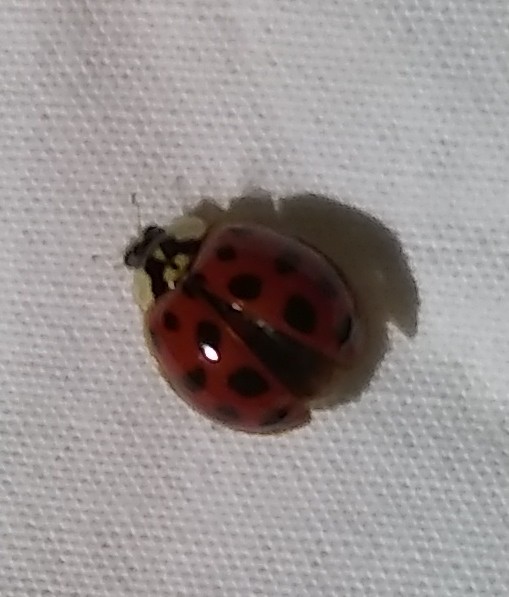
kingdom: Animalia
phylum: Arthropoda
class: Insecta
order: Coleoptera
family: Coccinellidae
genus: Harmonia
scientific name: Harmonia axyridis
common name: Harlequin ladybird
